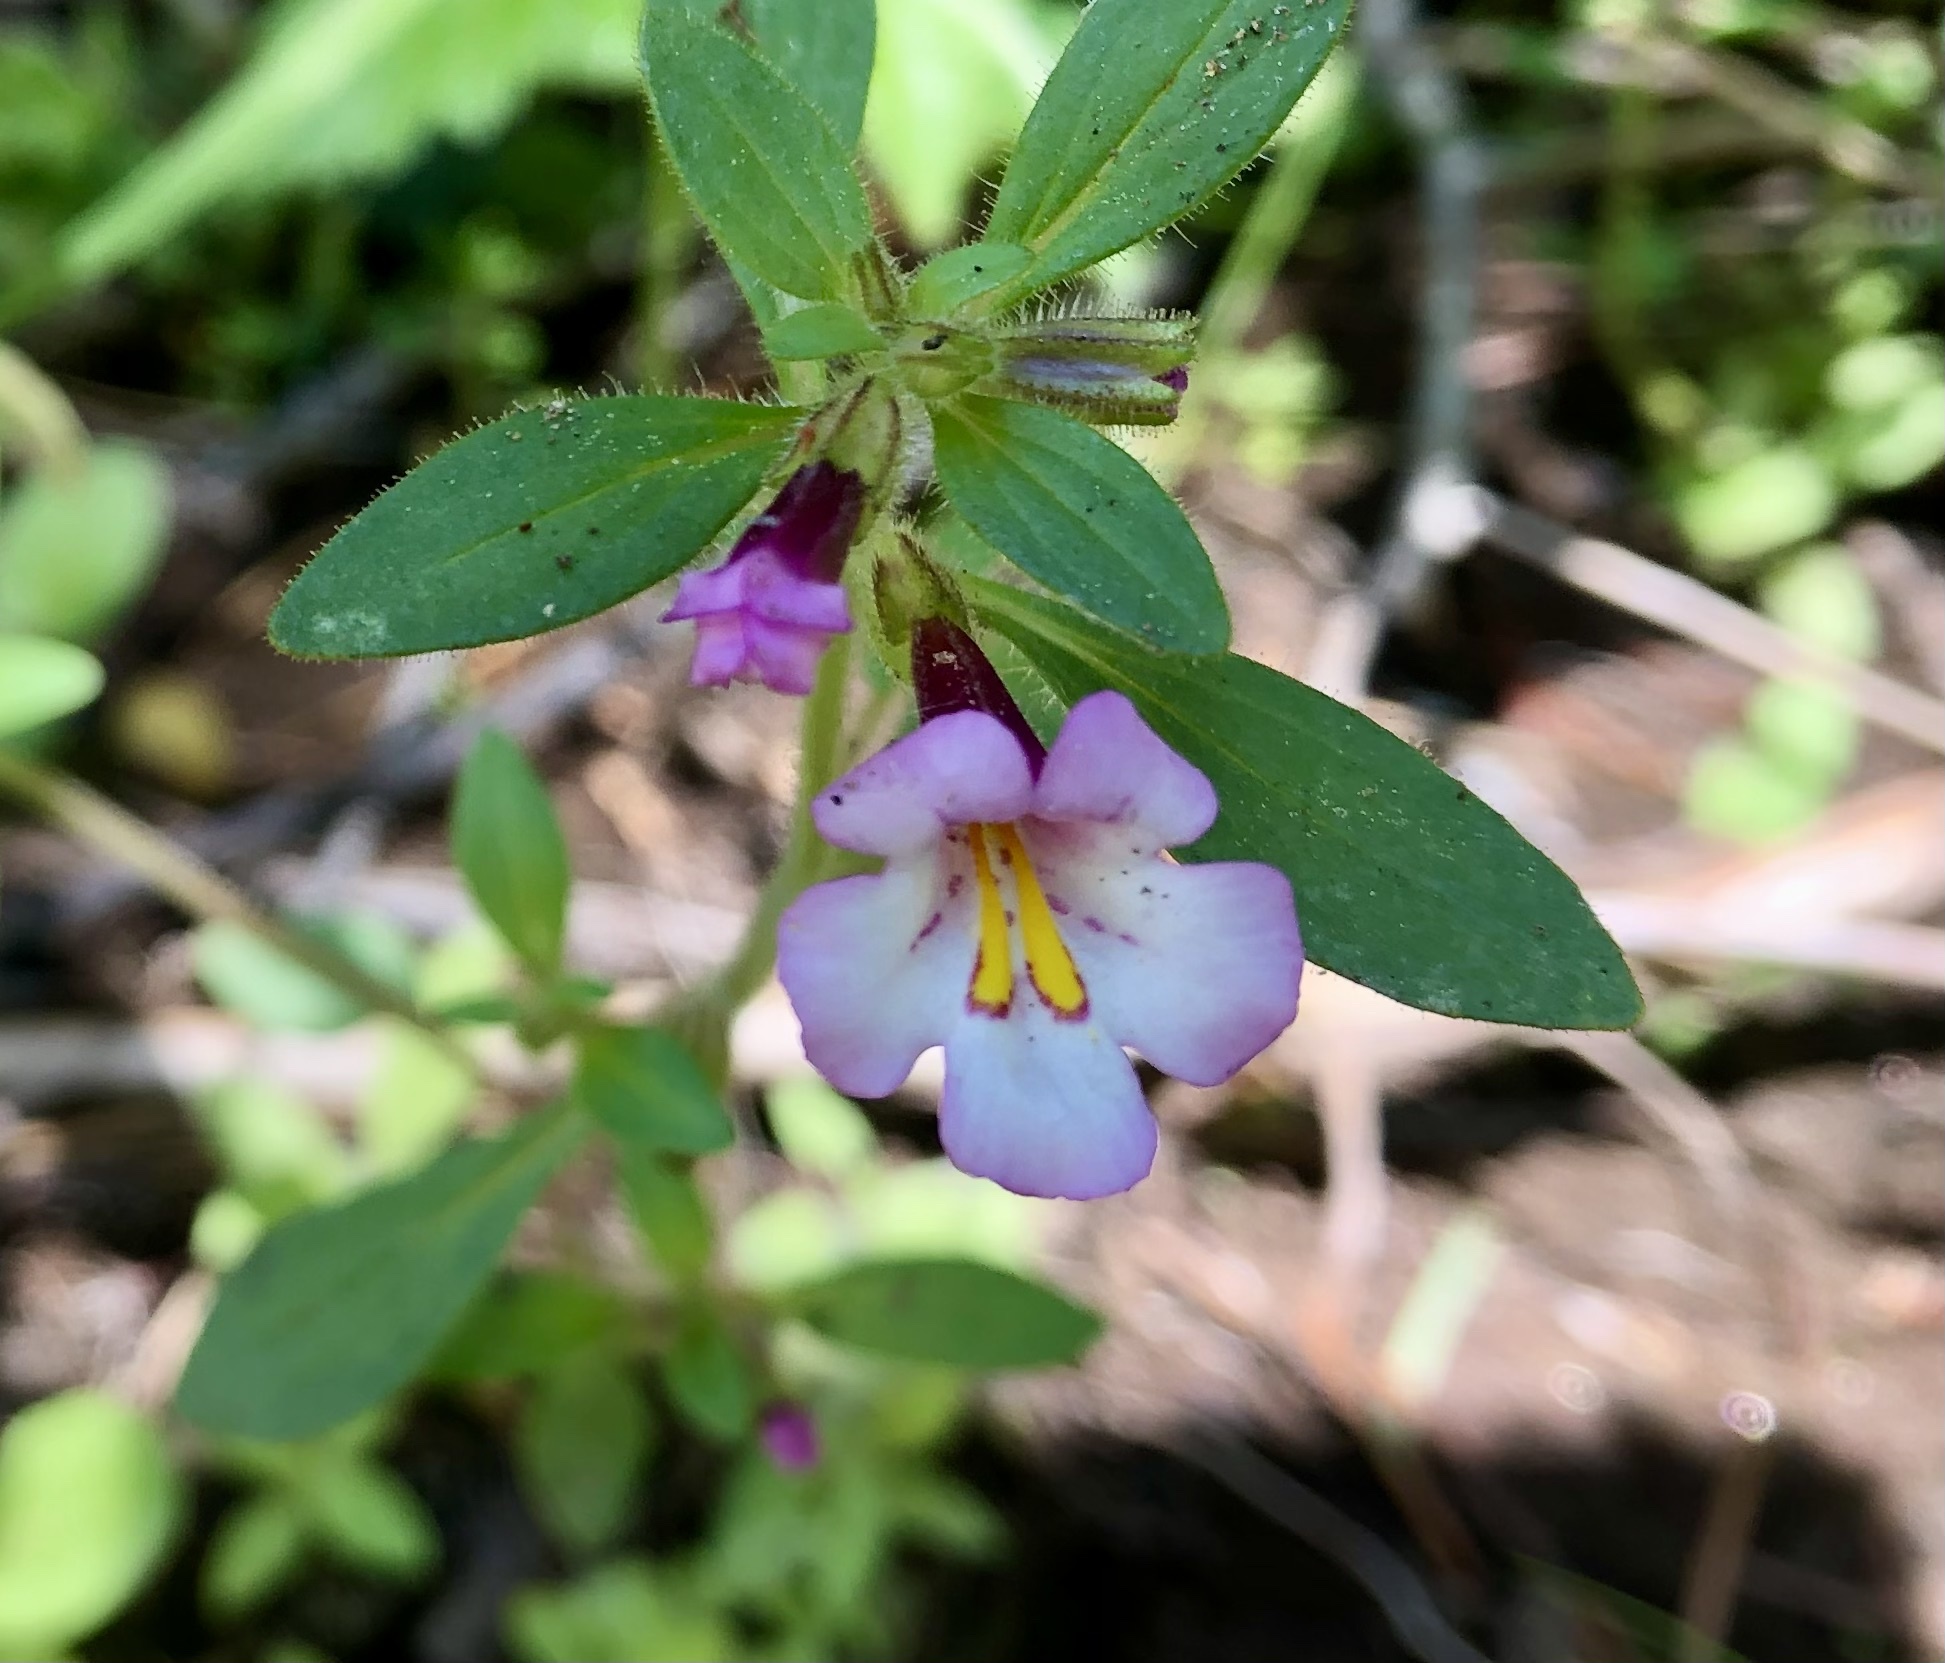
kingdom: Plantae
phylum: Tracheophyta
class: Magnoliopsida
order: Lamiales
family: Phrymaceae
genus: Diplacus
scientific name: Diplacus torreyi
